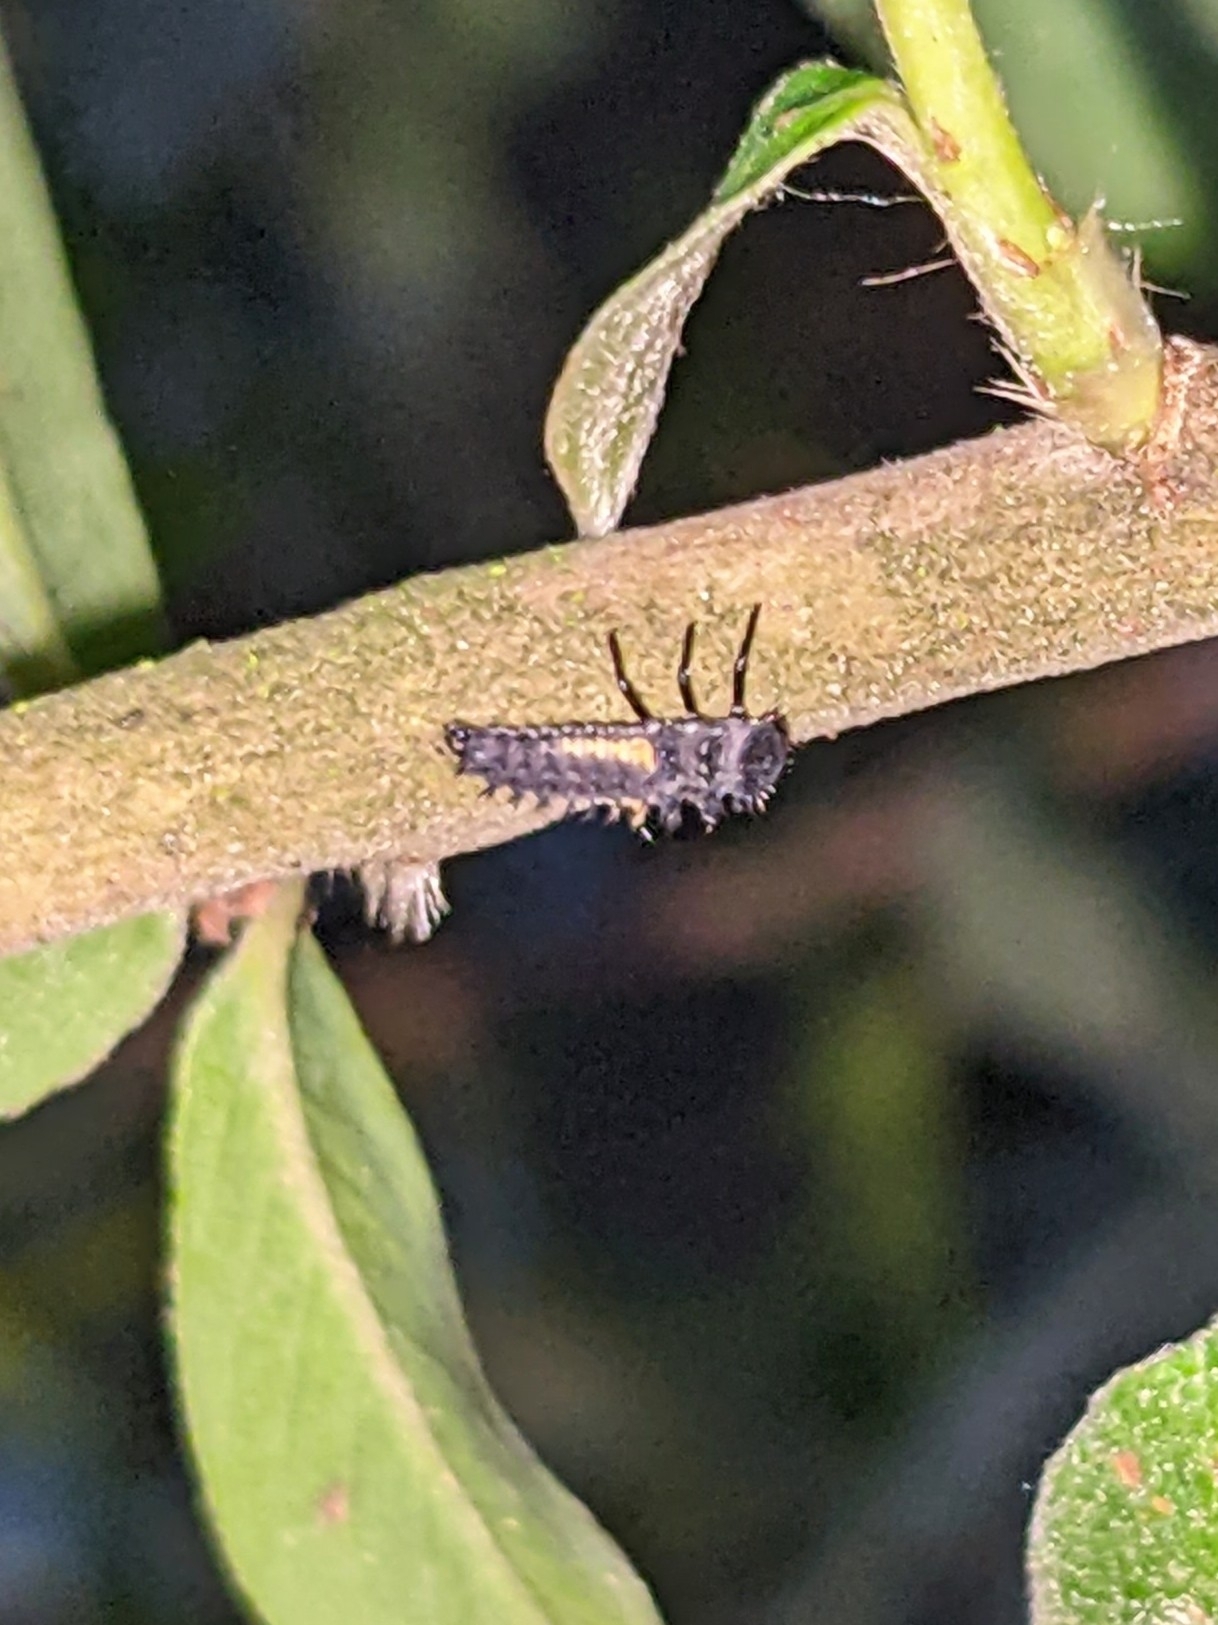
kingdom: Animalia
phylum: Arthropoda
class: Insecta
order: Coleoptera
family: Coccinellidae
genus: Harmonia
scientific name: Harmonia axyridis
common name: Harlequin ladybird
